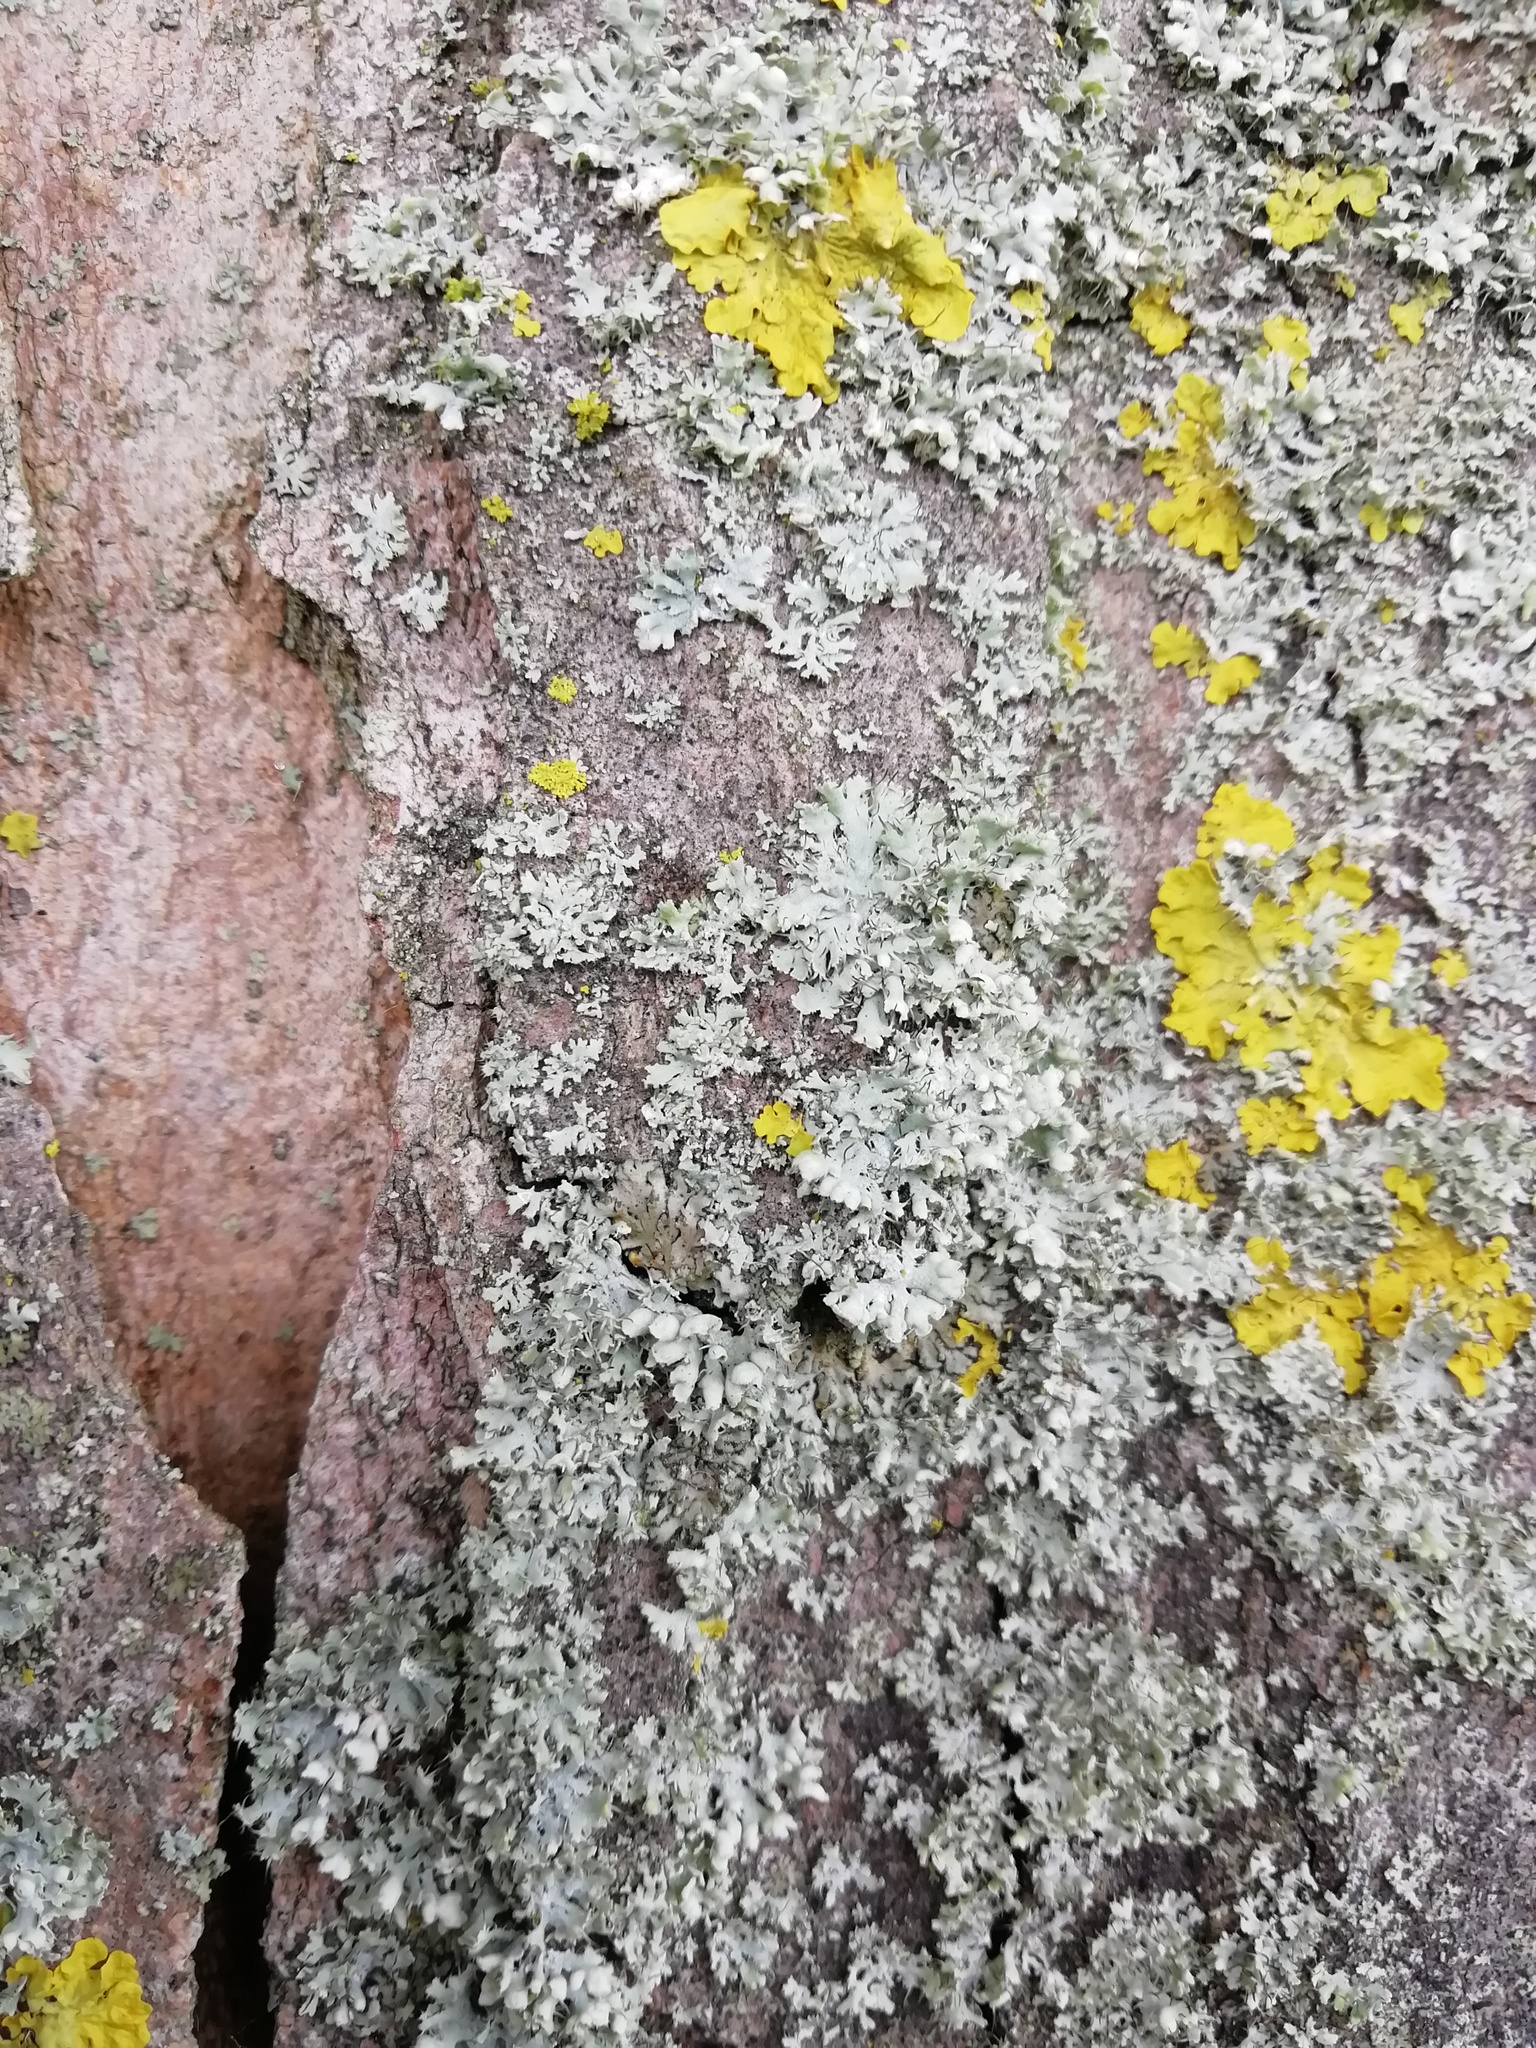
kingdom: Fungi
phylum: Ascomycota
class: Lecanoromycetes
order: Caliciales
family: Physciaceae
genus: Physcia
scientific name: Physcia adscendens
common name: Hooded rosette lichen
